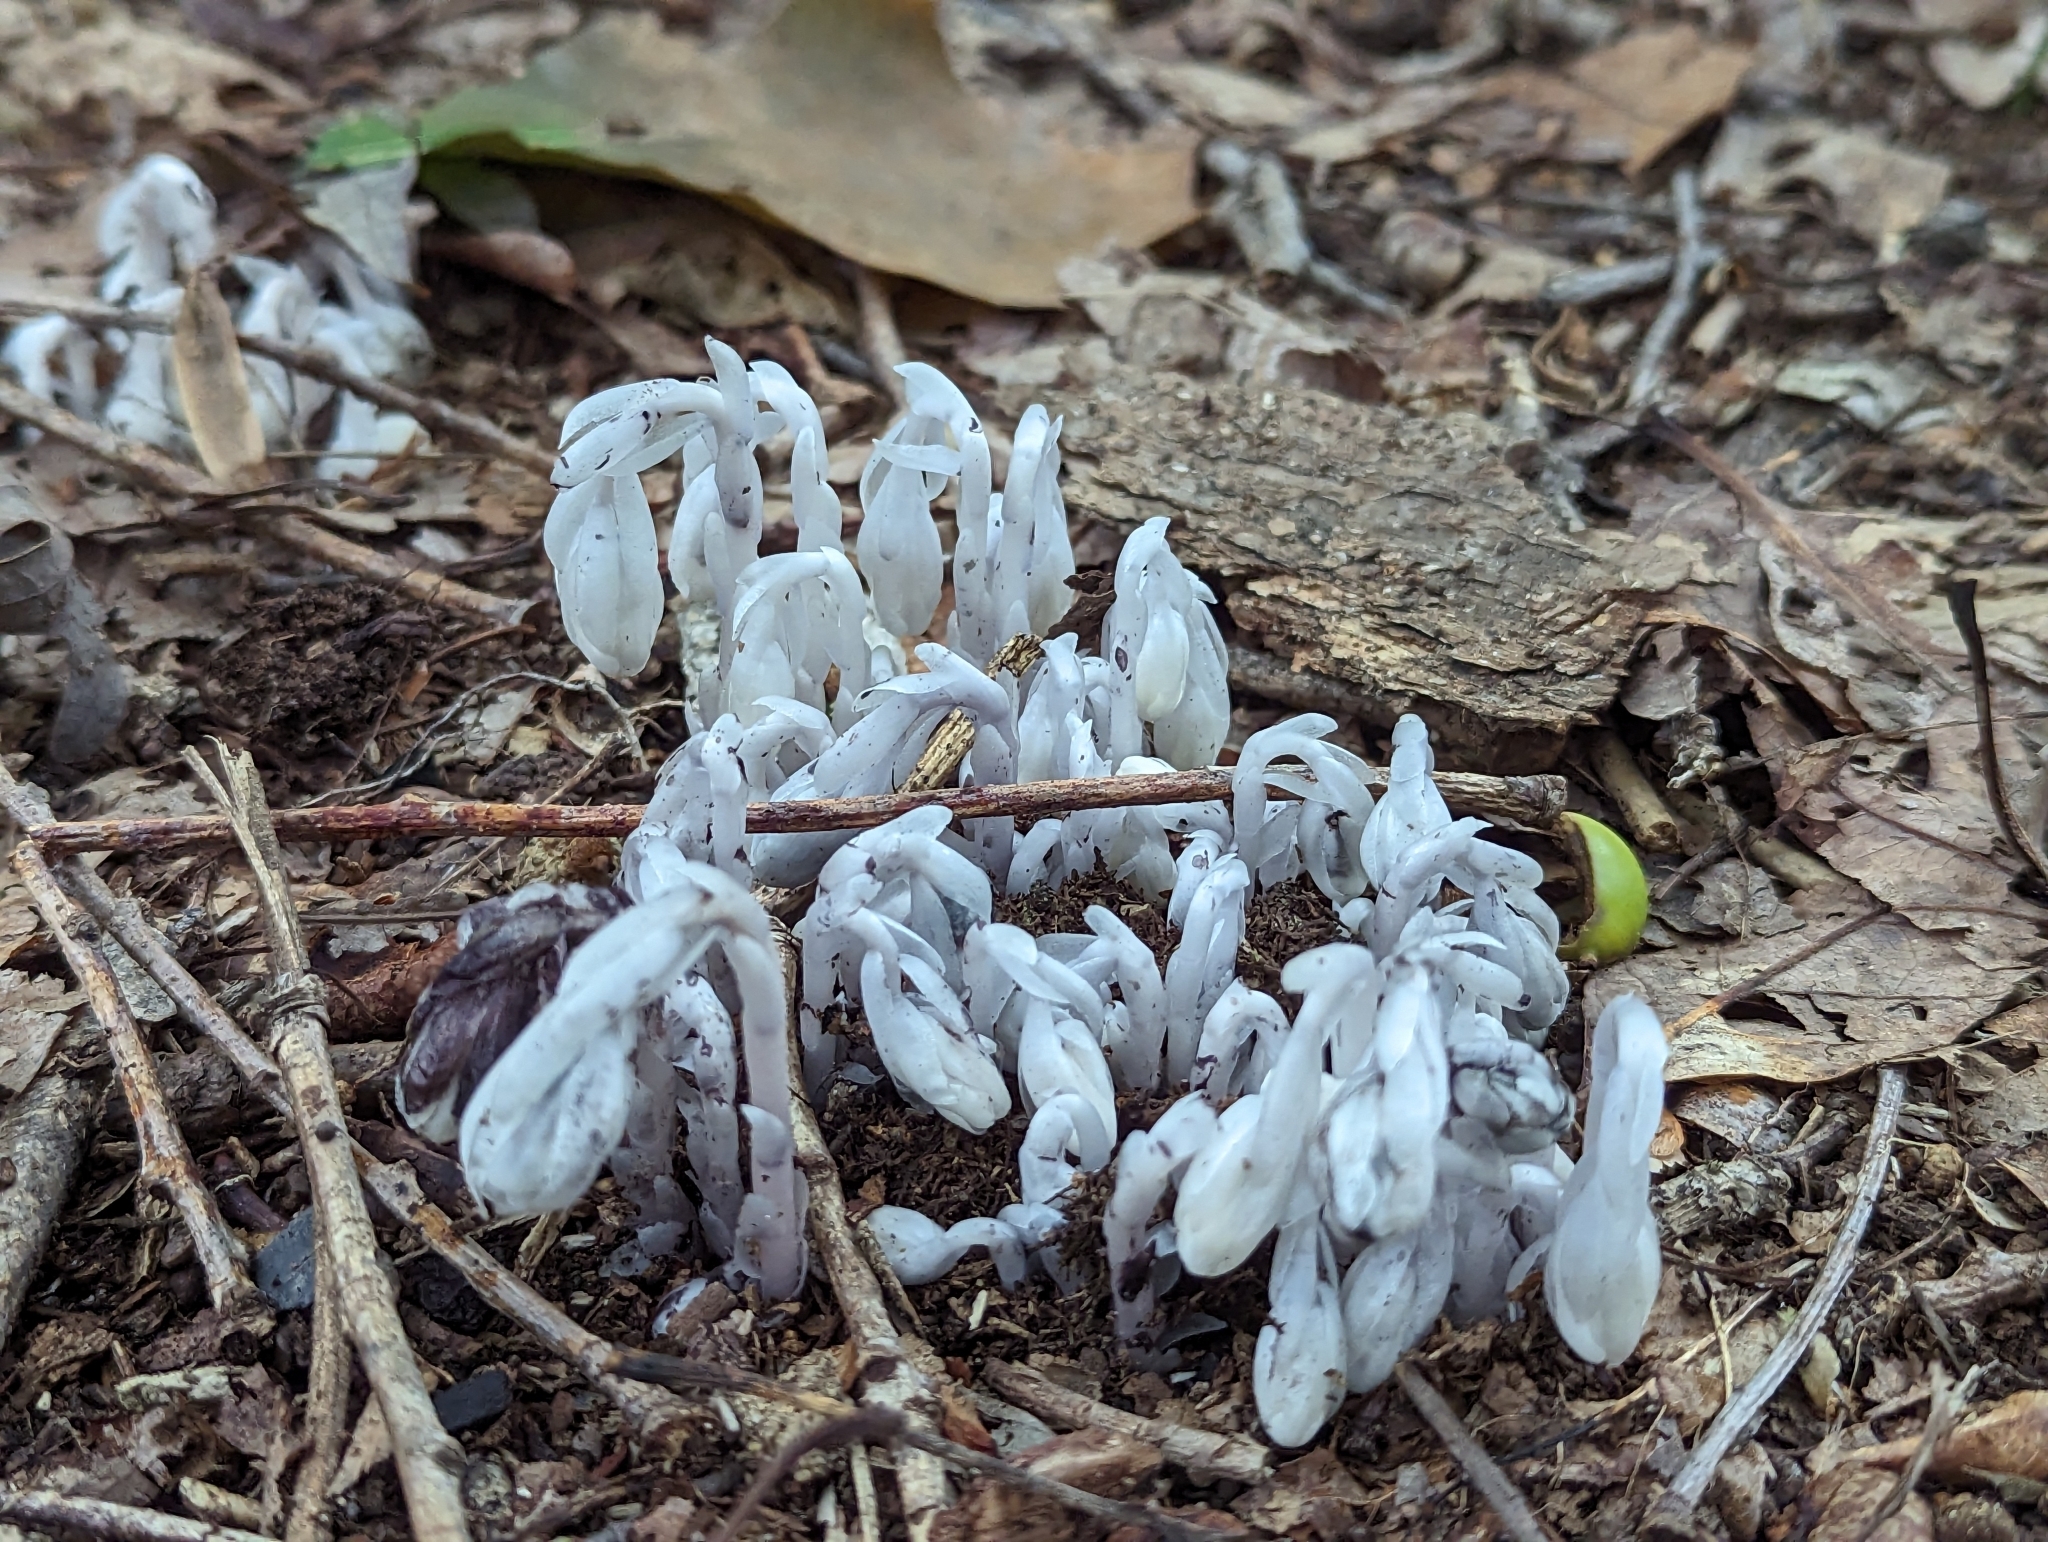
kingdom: Plantae
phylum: Tracheophyta
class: Magnoliopsida
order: Ericales
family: Ericaceae
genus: Monotropa
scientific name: Monotropa uniflora
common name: Convulsion root
